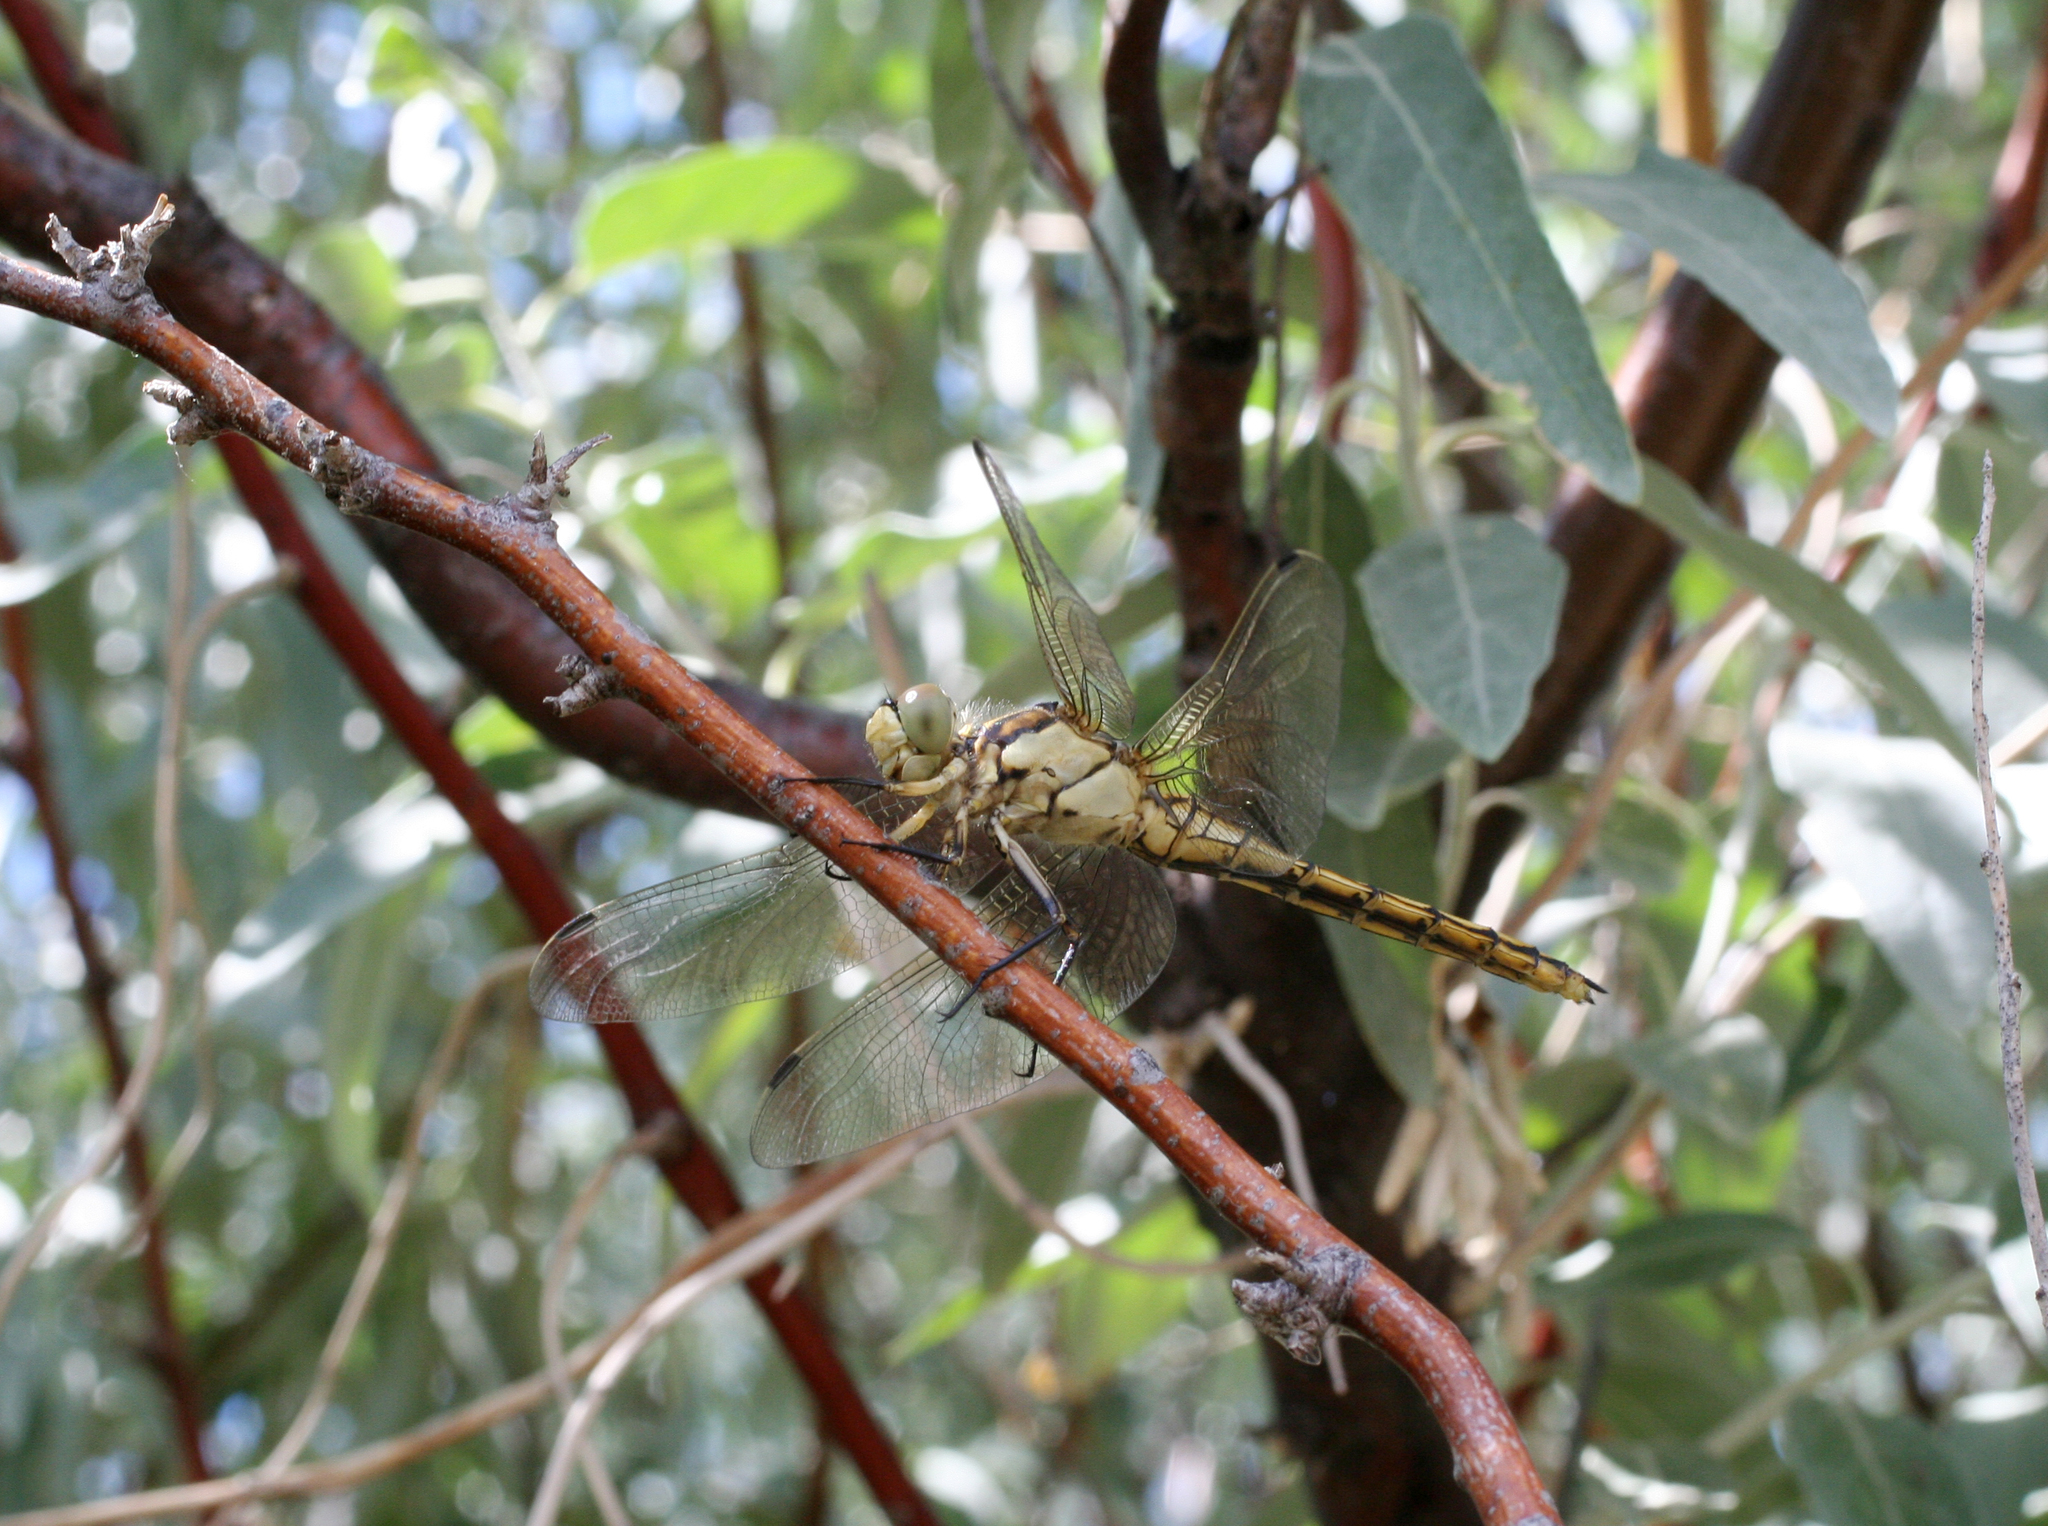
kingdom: Animalia
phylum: Arthropoda
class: Insecta
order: Odonata
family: Libellulidae
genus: Orthetrum
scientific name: Orthetrum cancellatum
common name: Black-tailed skimmer
